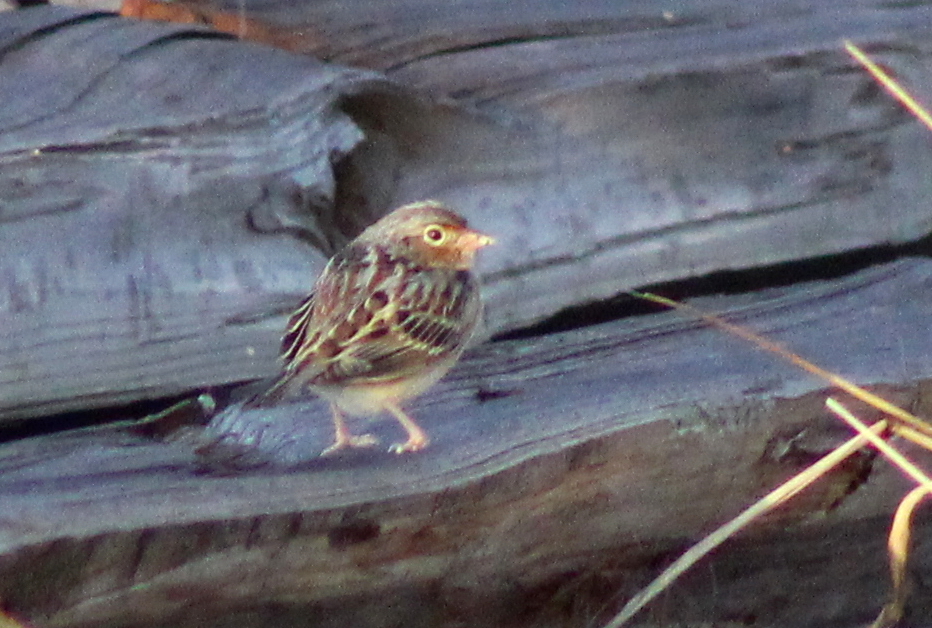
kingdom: Animalia
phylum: Chordata
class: Aves
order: Passeriformes
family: Passerellidae
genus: Ammodramus
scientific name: Ammodramus savannarum
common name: Grasshopper sparrow
